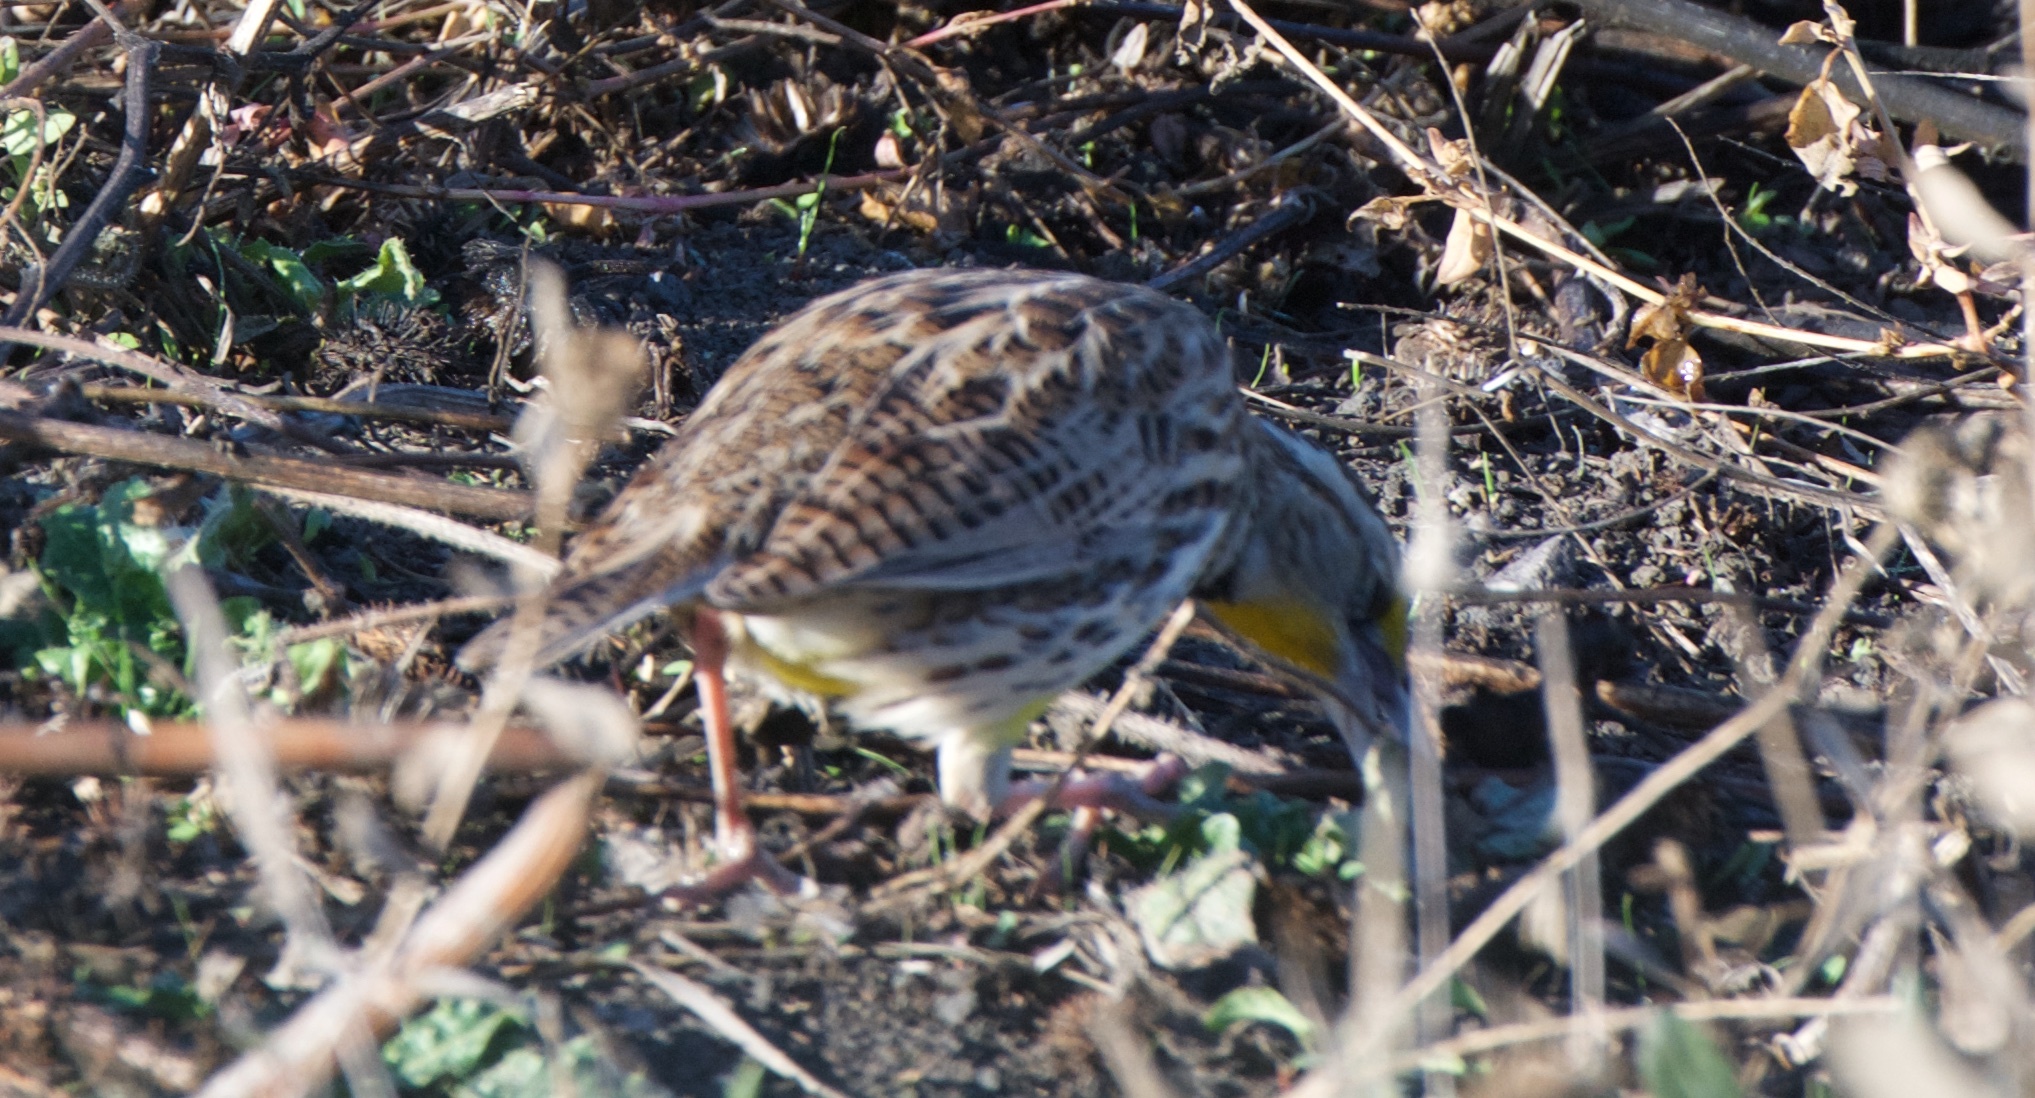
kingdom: Animalia
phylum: Chordata
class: Aves
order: Passeriformes
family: Icteridae
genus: Sturnella
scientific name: Sturnella neglecta
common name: Western meadowlark
